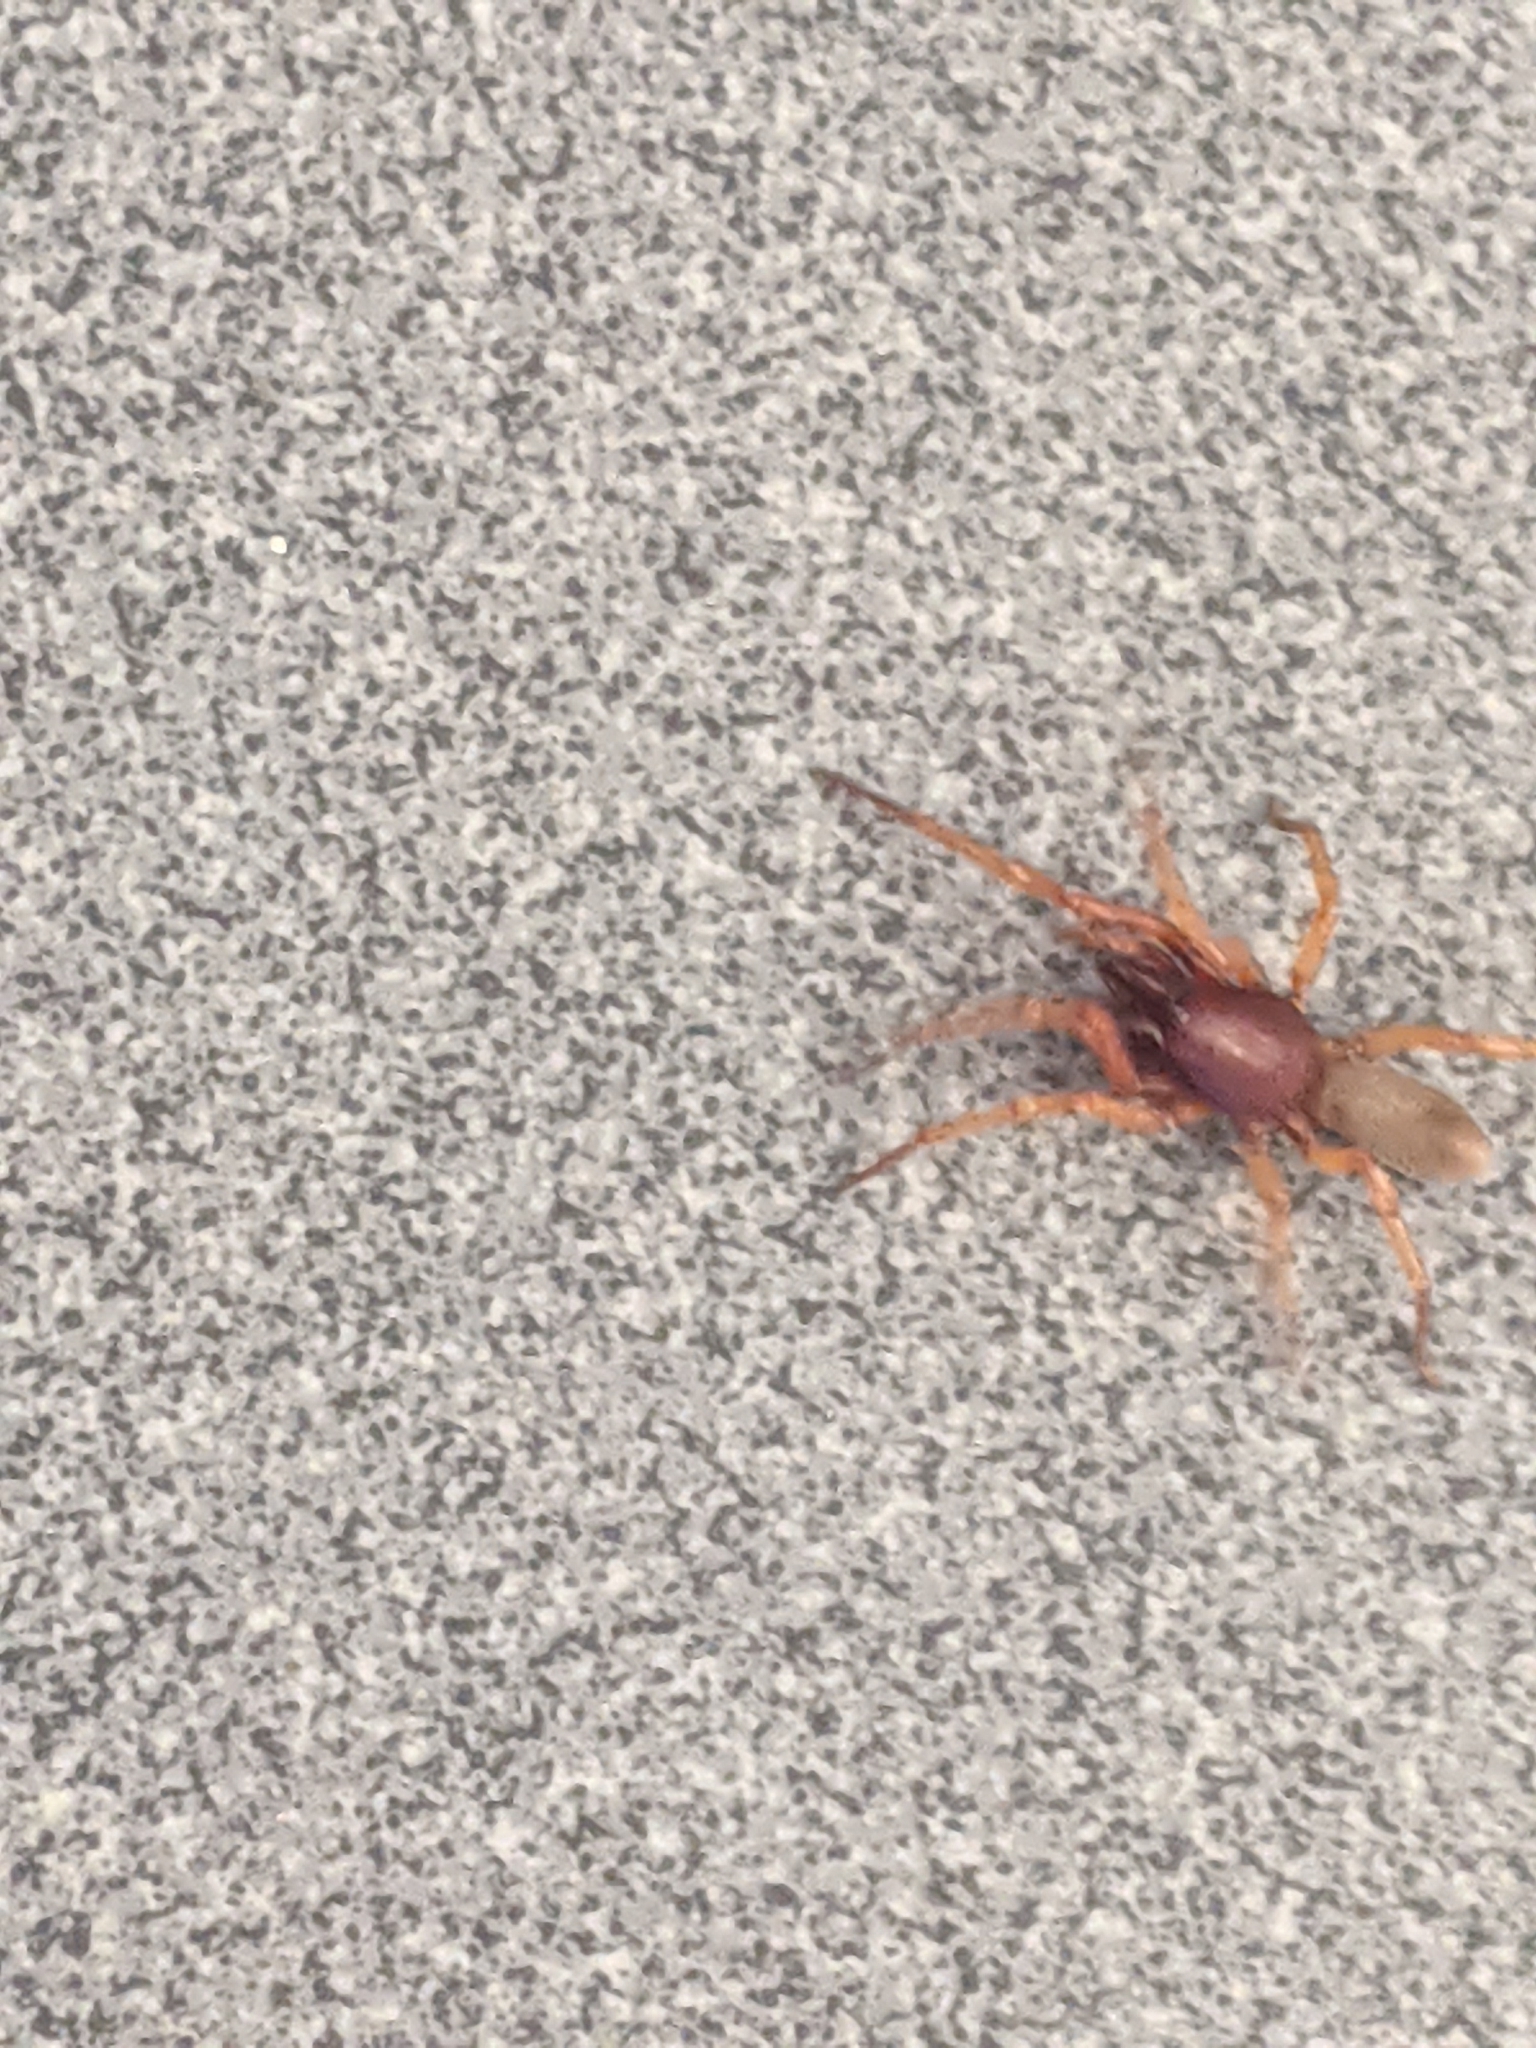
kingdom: Animalia
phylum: Arthropoda
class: Arachnida
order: Araneae
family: Dysderidae
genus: Dysdera
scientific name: Dysdera crocata
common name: Woodlouse spider
